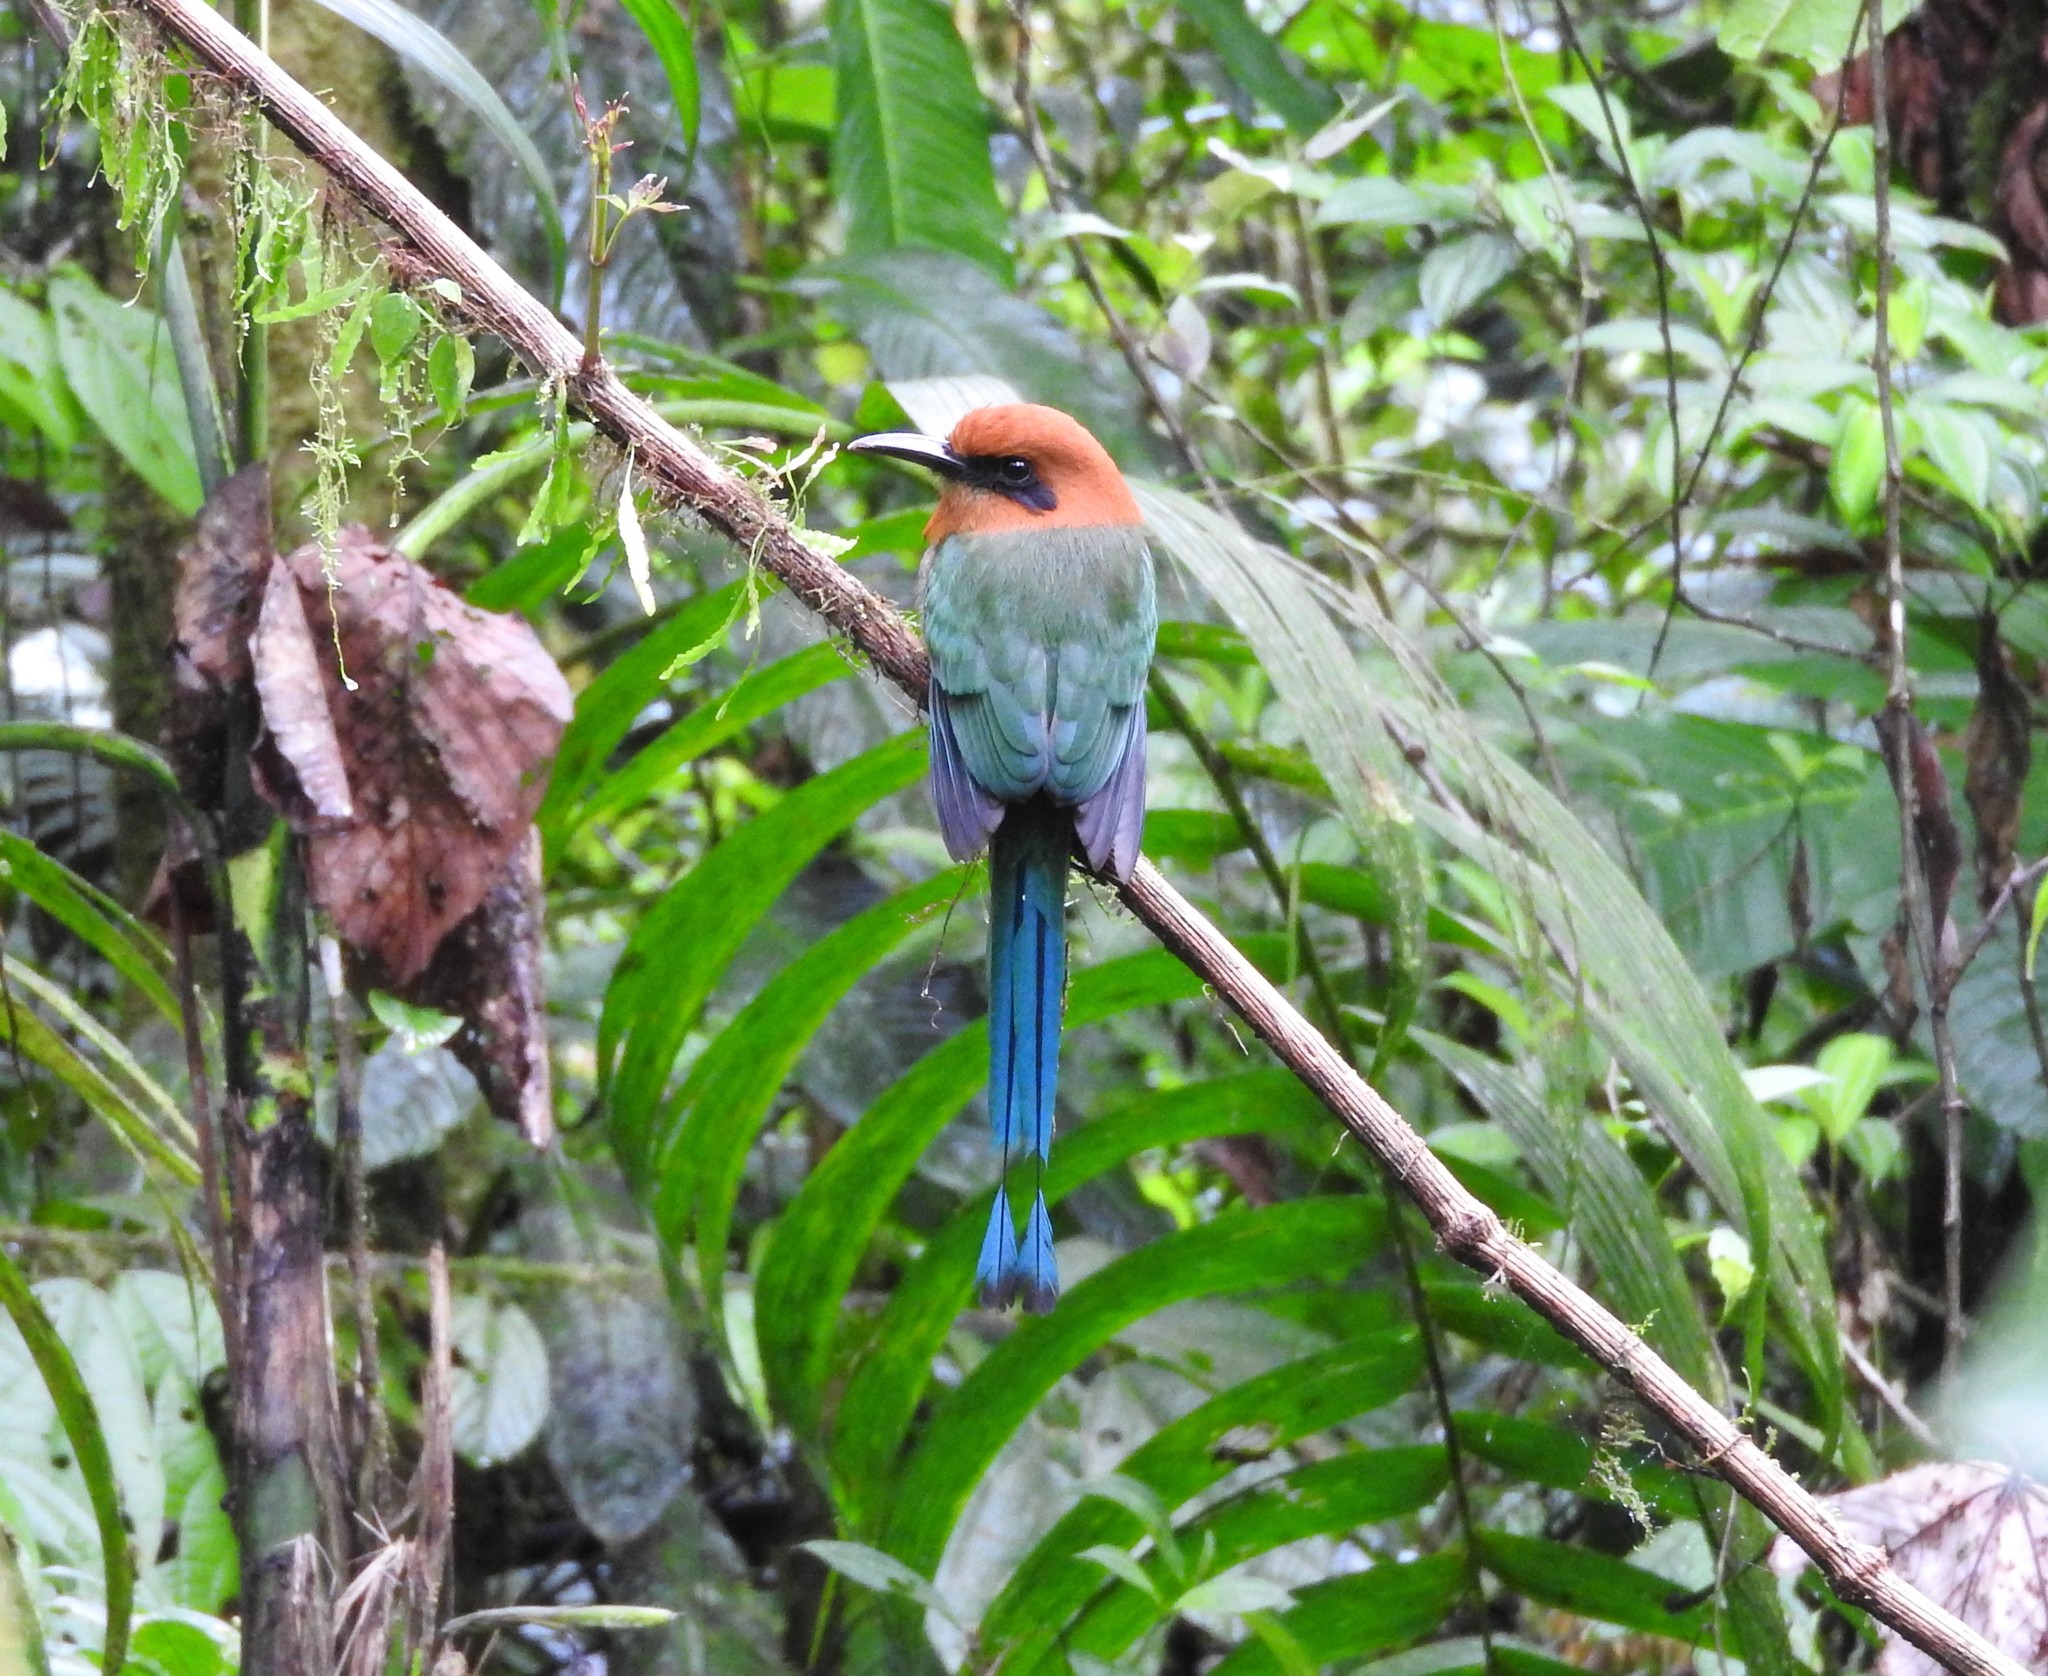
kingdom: Animalia
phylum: Chordata
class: Aves
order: Coraciiformes
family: Momotidae
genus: Electron
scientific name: Electron platyrhynchum
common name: Broad-billed motmot
